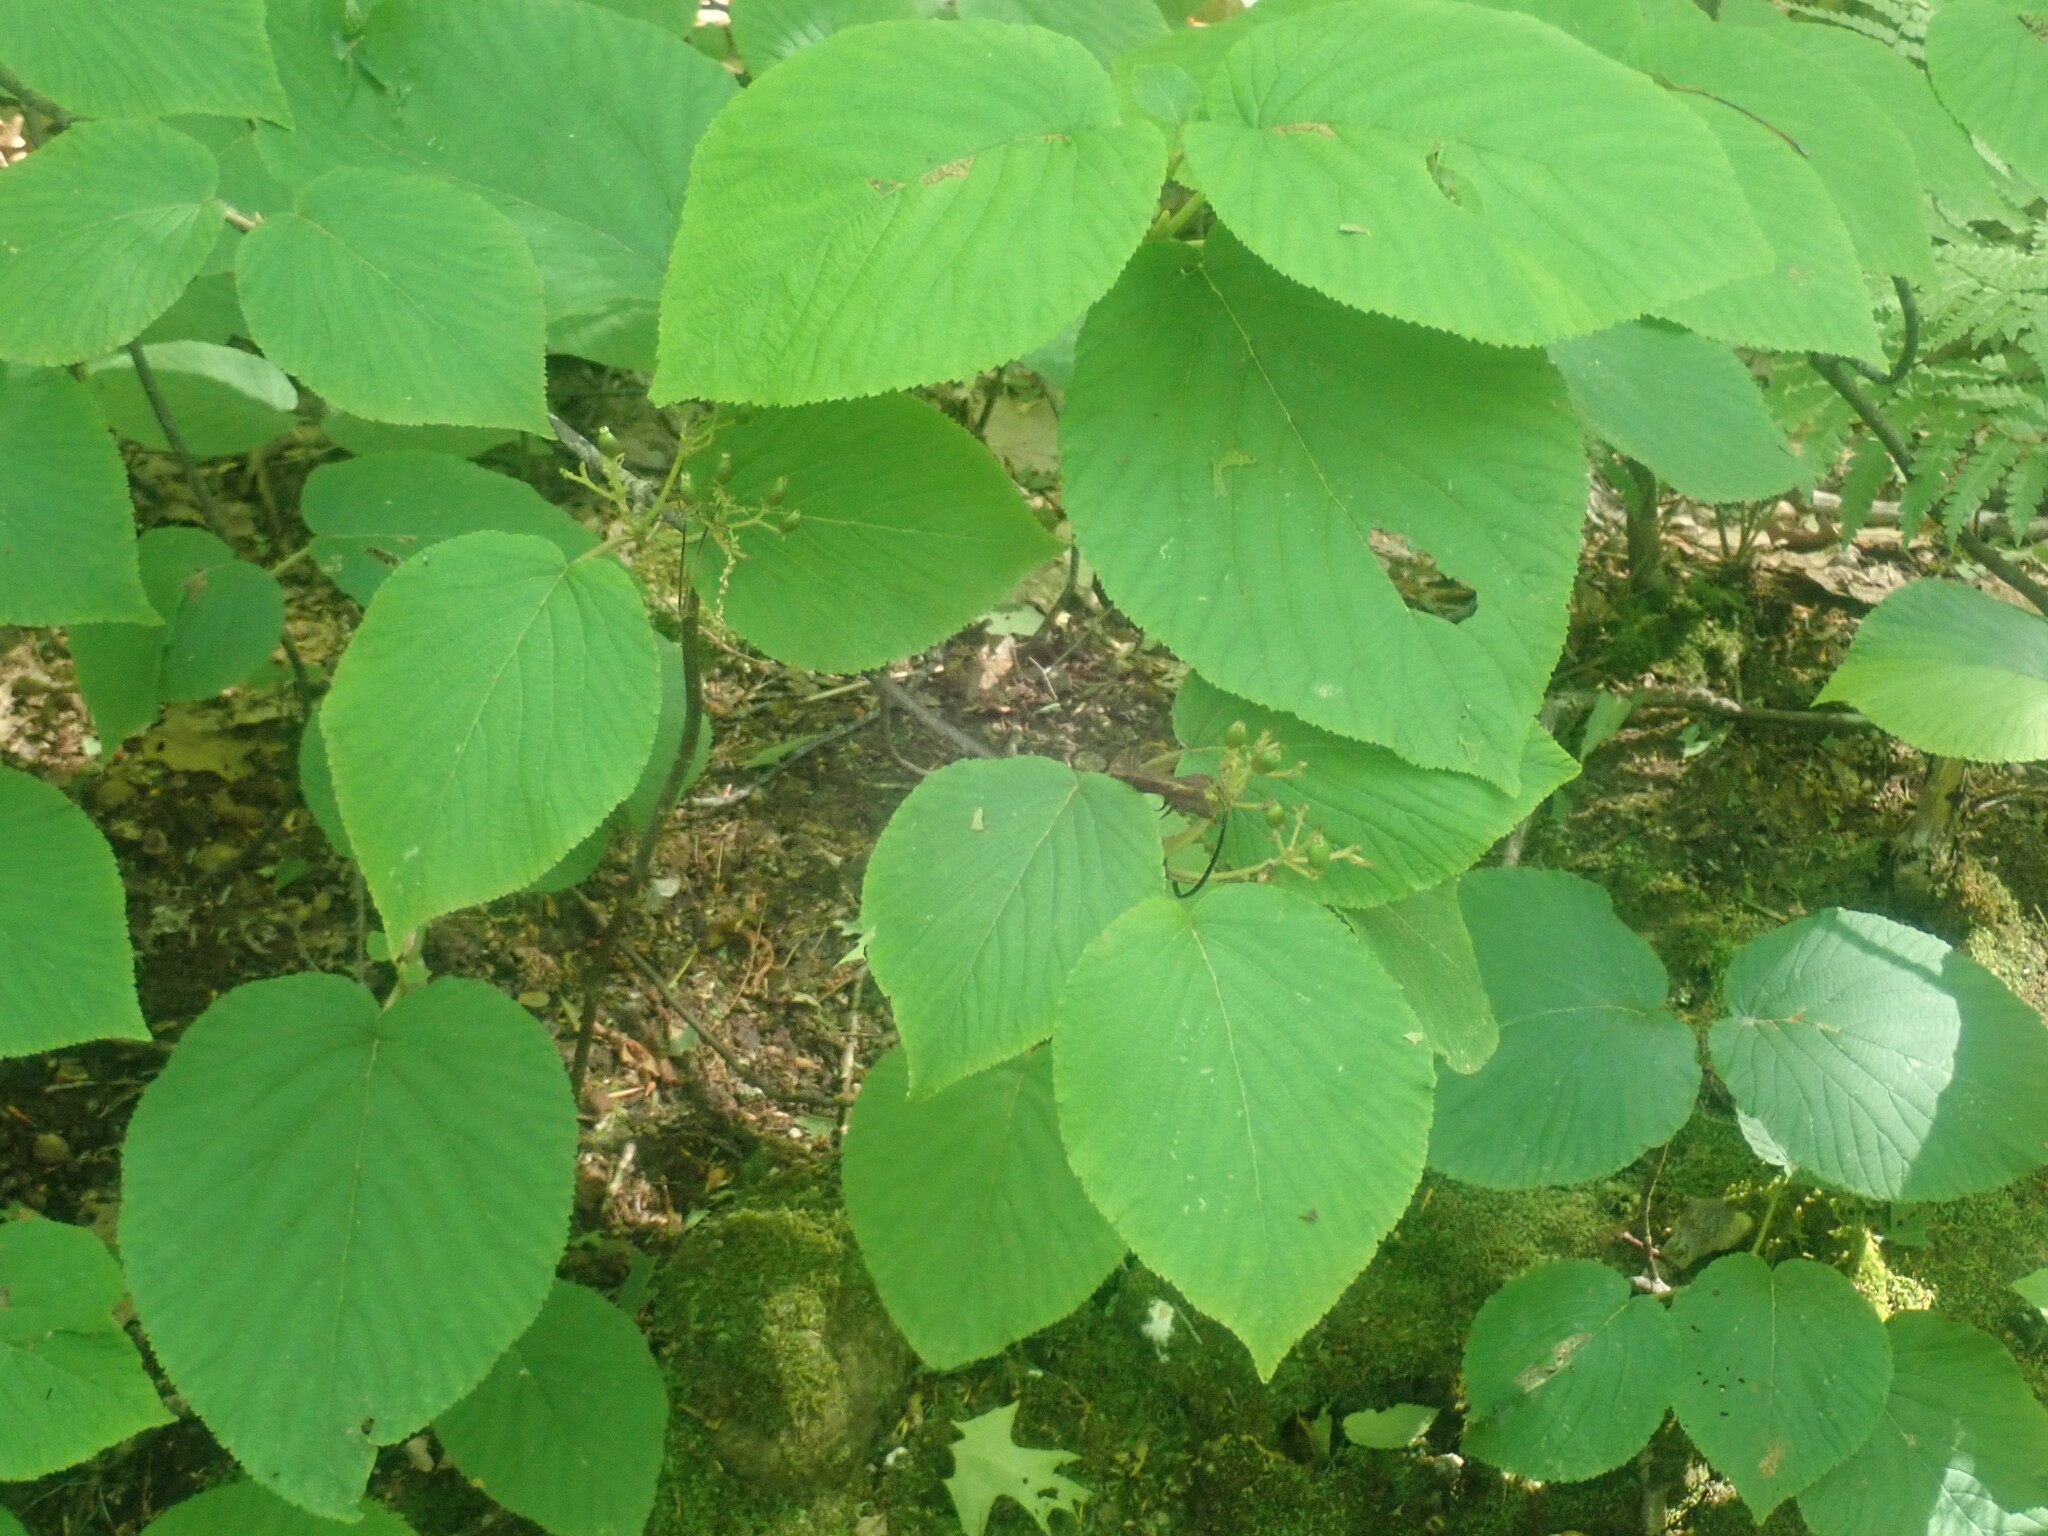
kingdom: Plantae
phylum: Tracheophyta
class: Magnoliopsida
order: Dipsacales
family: Viburnaceae
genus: Viburnum
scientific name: Viburnum lantanoides
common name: Hobblebush
